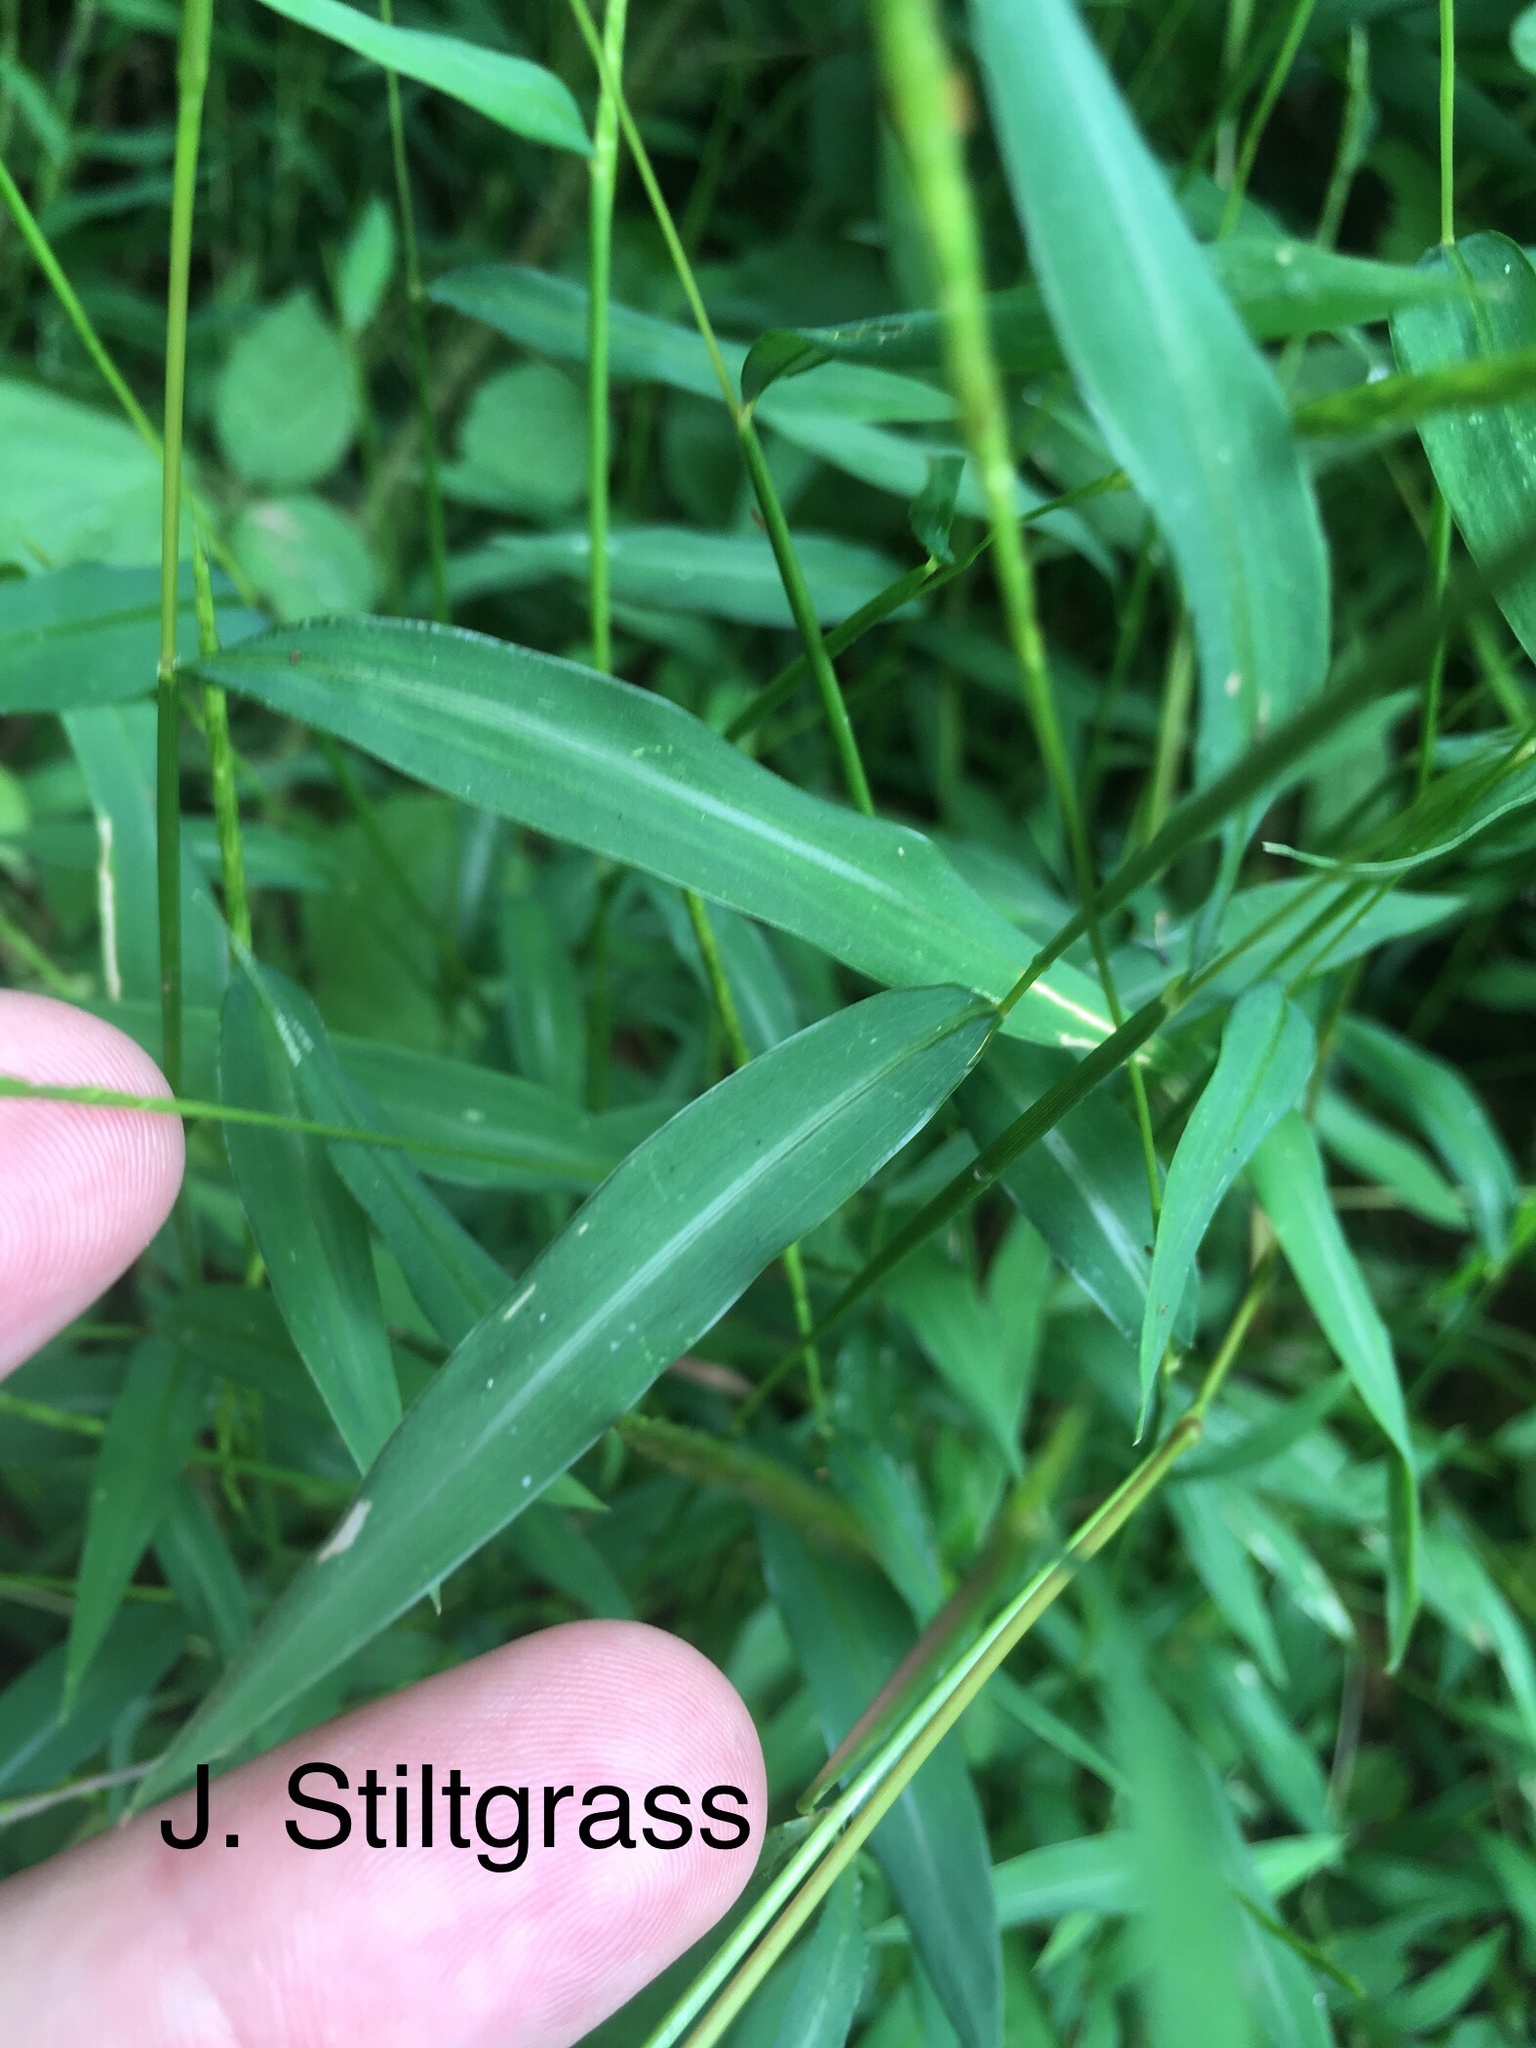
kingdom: Plantae
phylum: Tracheophyta
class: Liliopsida
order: Poales
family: Poaceae
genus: Microstegium
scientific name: Microstegium vimineum
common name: Japanese stiltgrass
